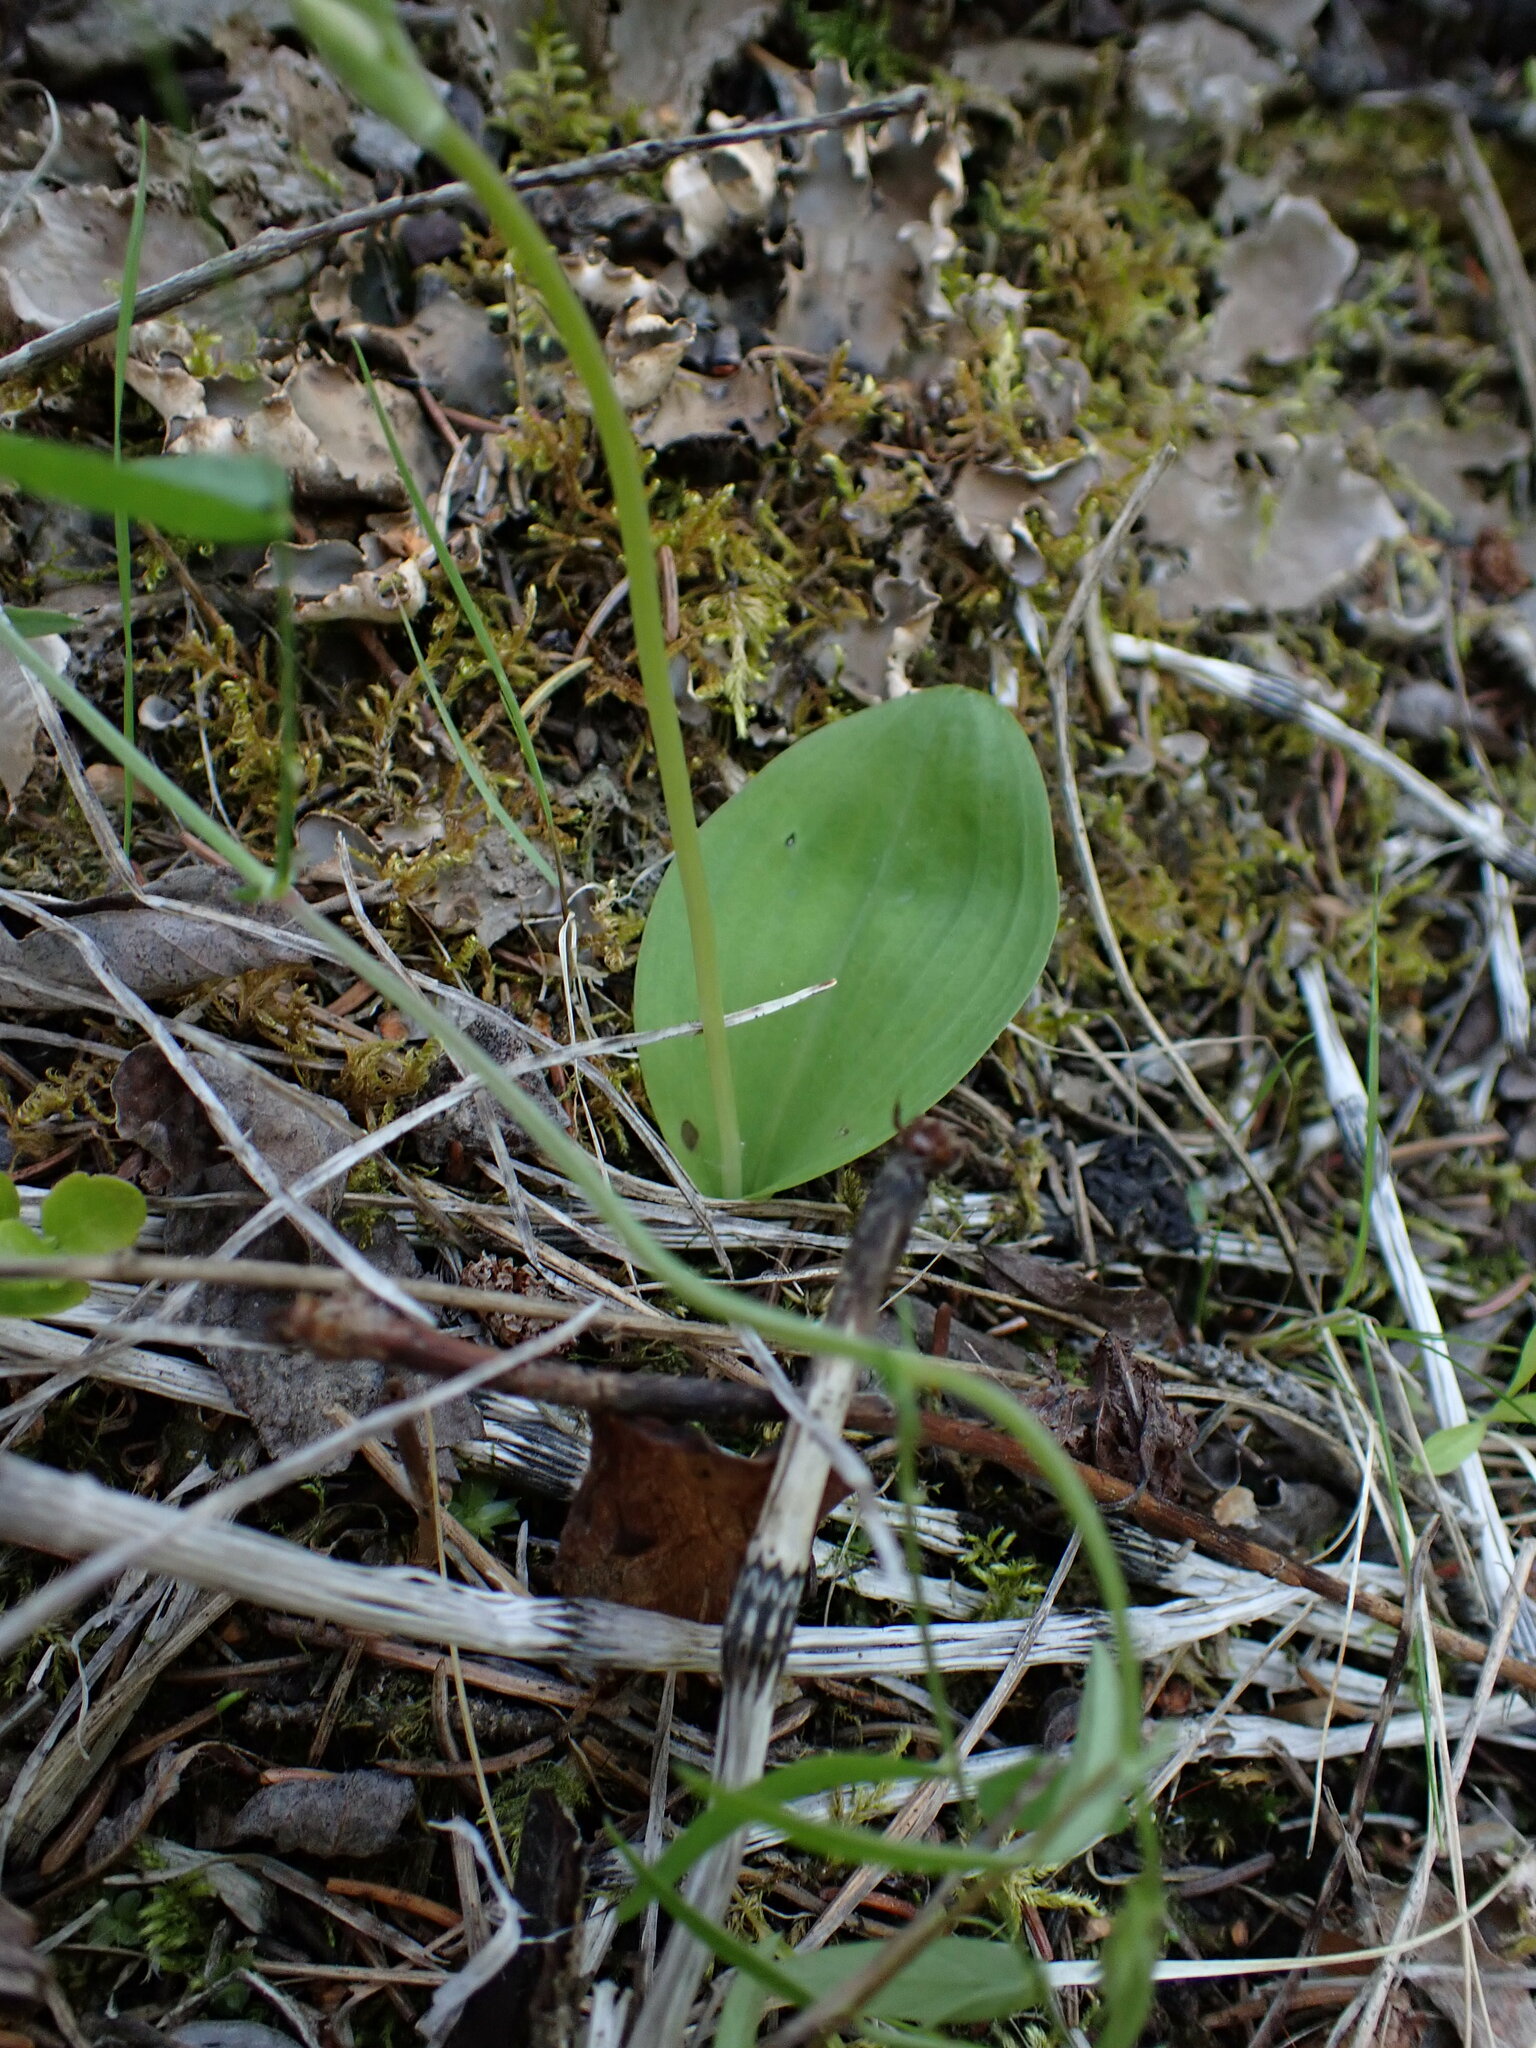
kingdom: Plantae
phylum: Tracheophyta
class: Liliopsida
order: Asparagales
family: Orchidaceae
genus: Galearis
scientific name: Galearis rotundifolia
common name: One-leaved orchis
